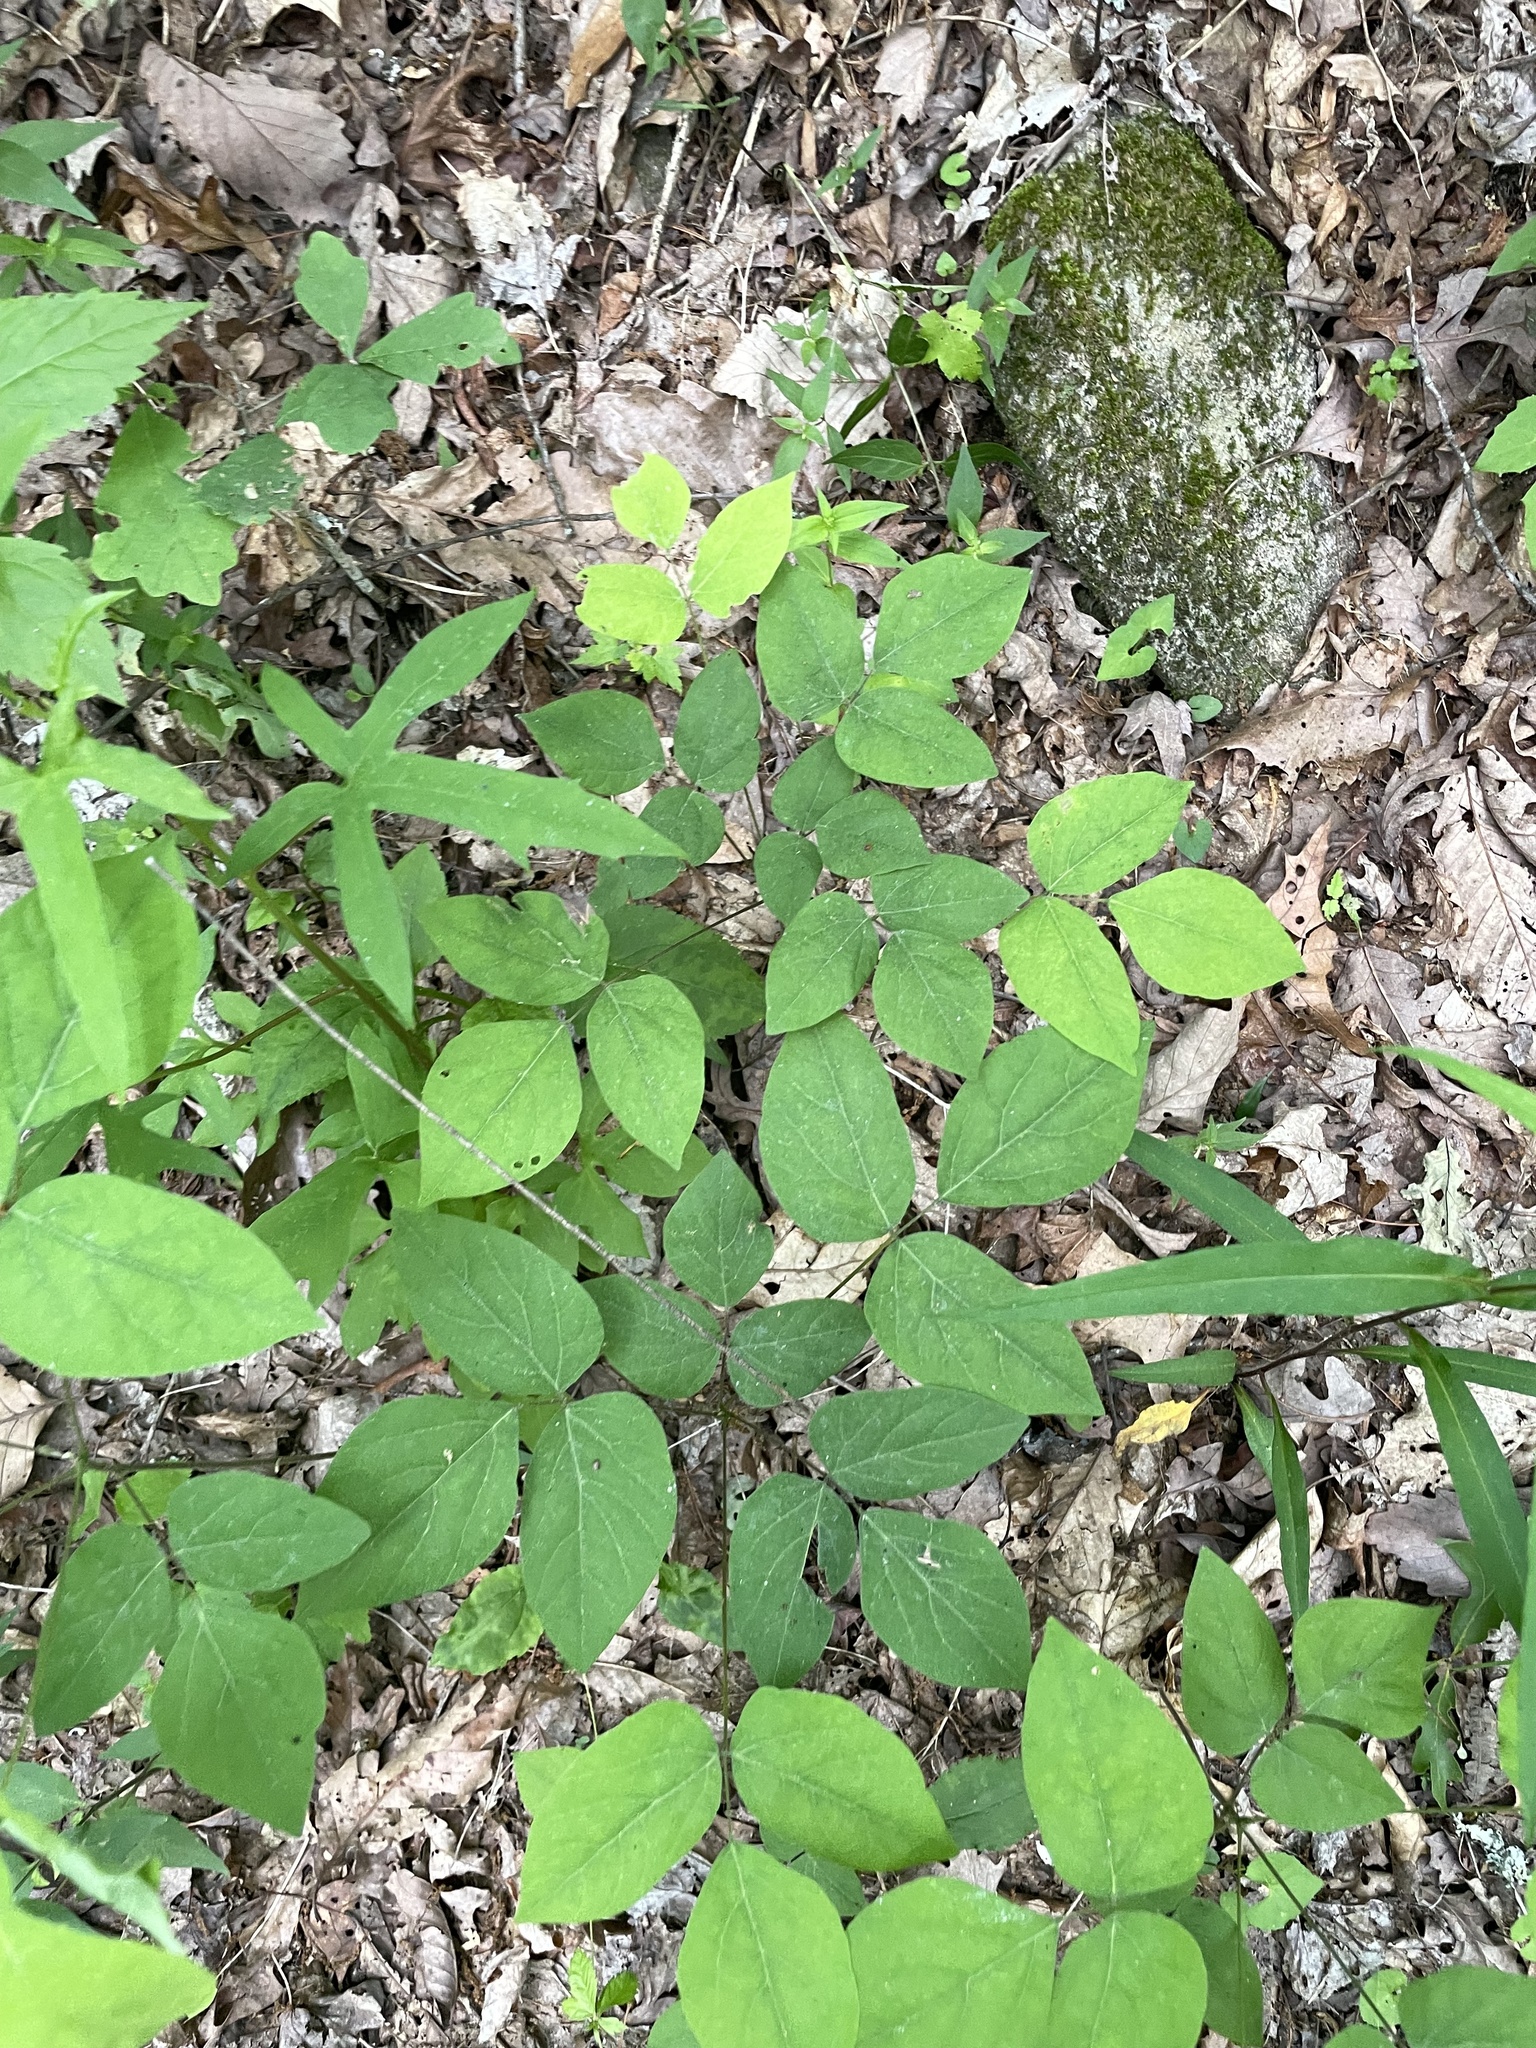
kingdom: Plantae
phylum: Tracheophyta
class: Magnoliopsida
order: Fabales
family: Fabaceae
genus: Hylodesmum
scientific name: Hylodesmum nudiflorum
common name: Bare-stemmed tick-trefoil
